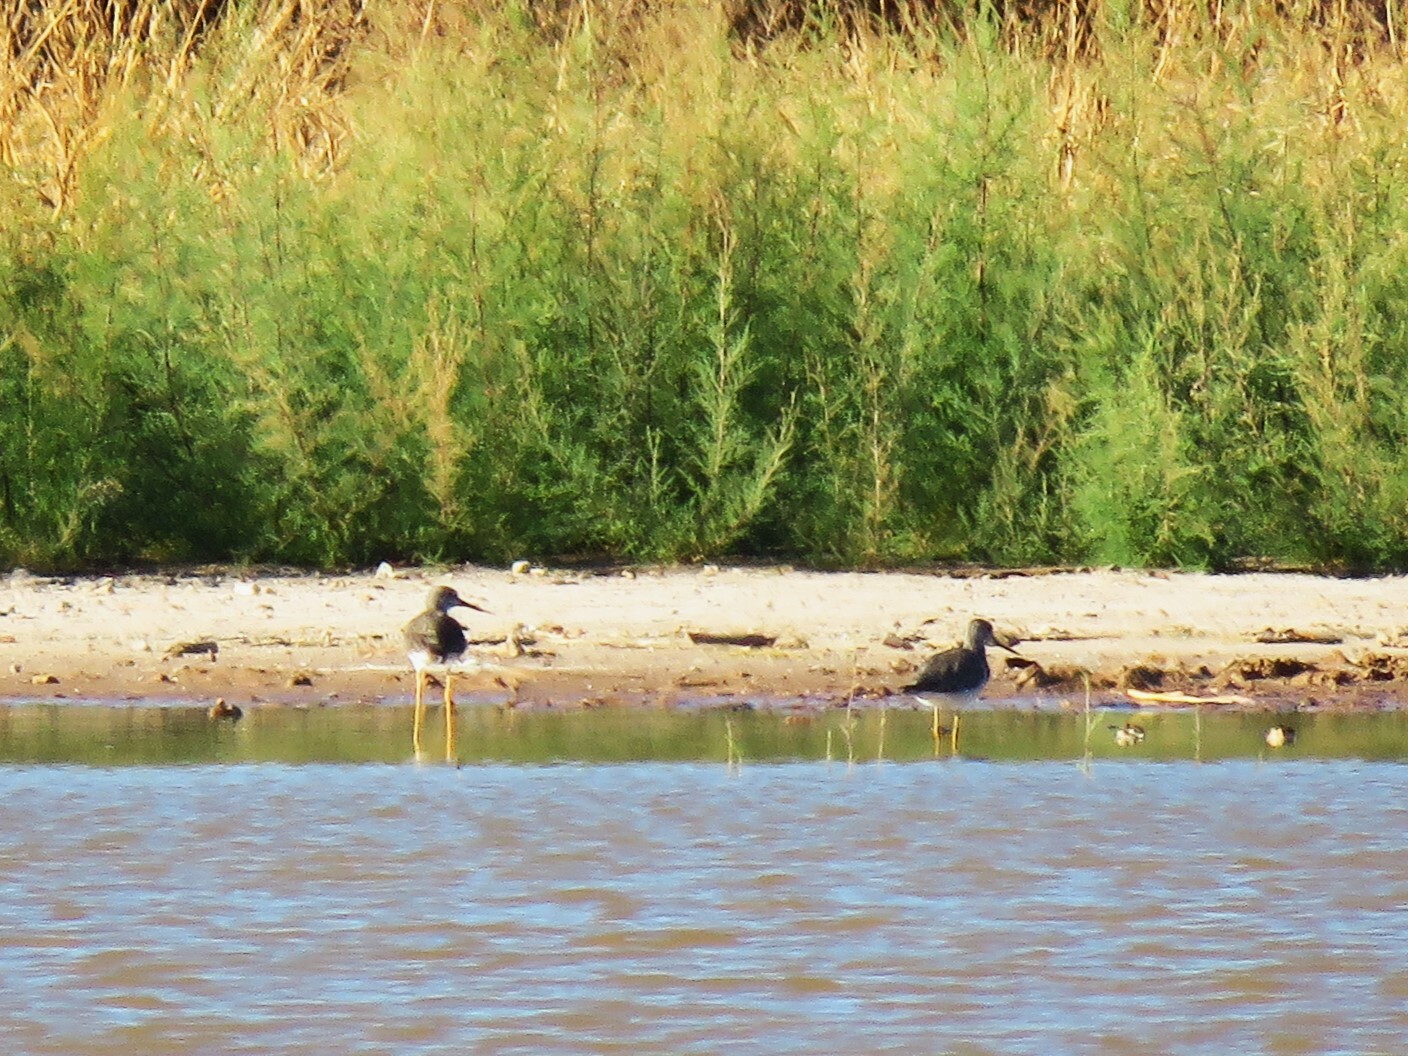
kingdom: Animalia
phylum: Chordata
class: Aves
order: Charadriiformes
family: Scolopacidae
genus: Tringa
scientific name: Tringa melanoleuca
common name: Greater yellowlegs
